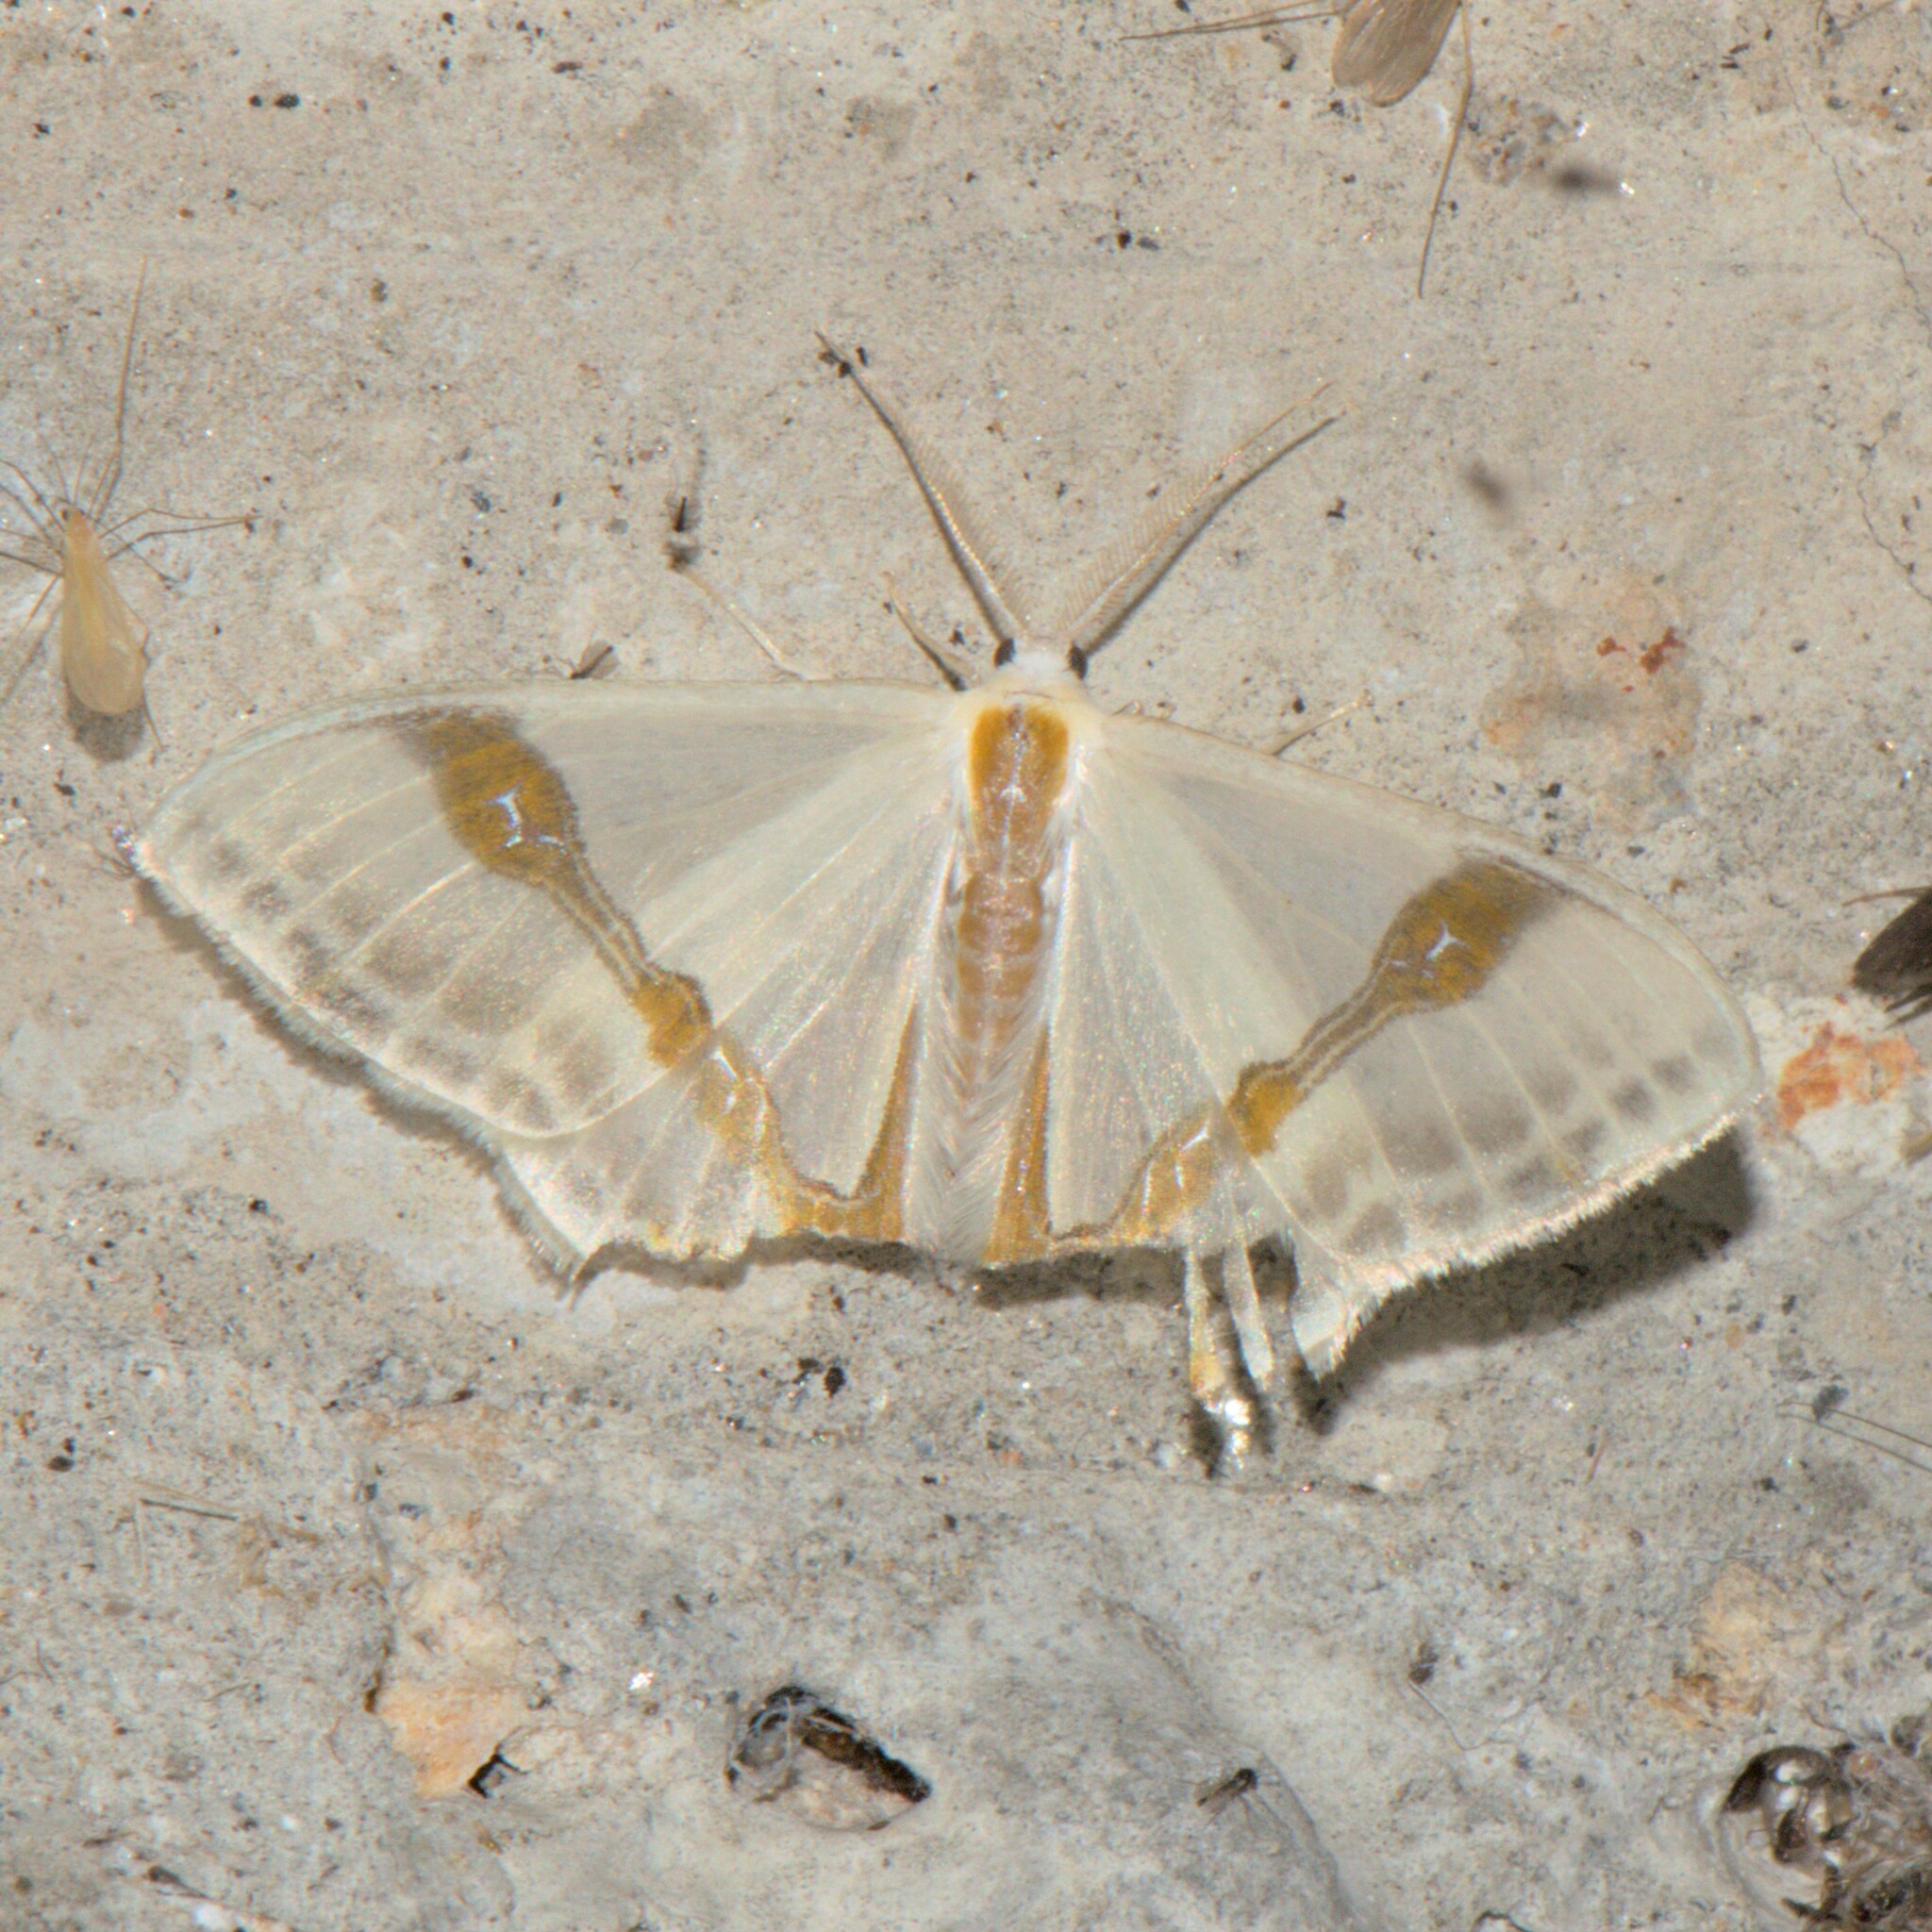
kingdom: Animalia
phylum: Arthropoda
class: Insecta
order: Lepidoptera
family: Drepanidae
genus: Macrocilix
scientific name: Macrocilix mysticata
